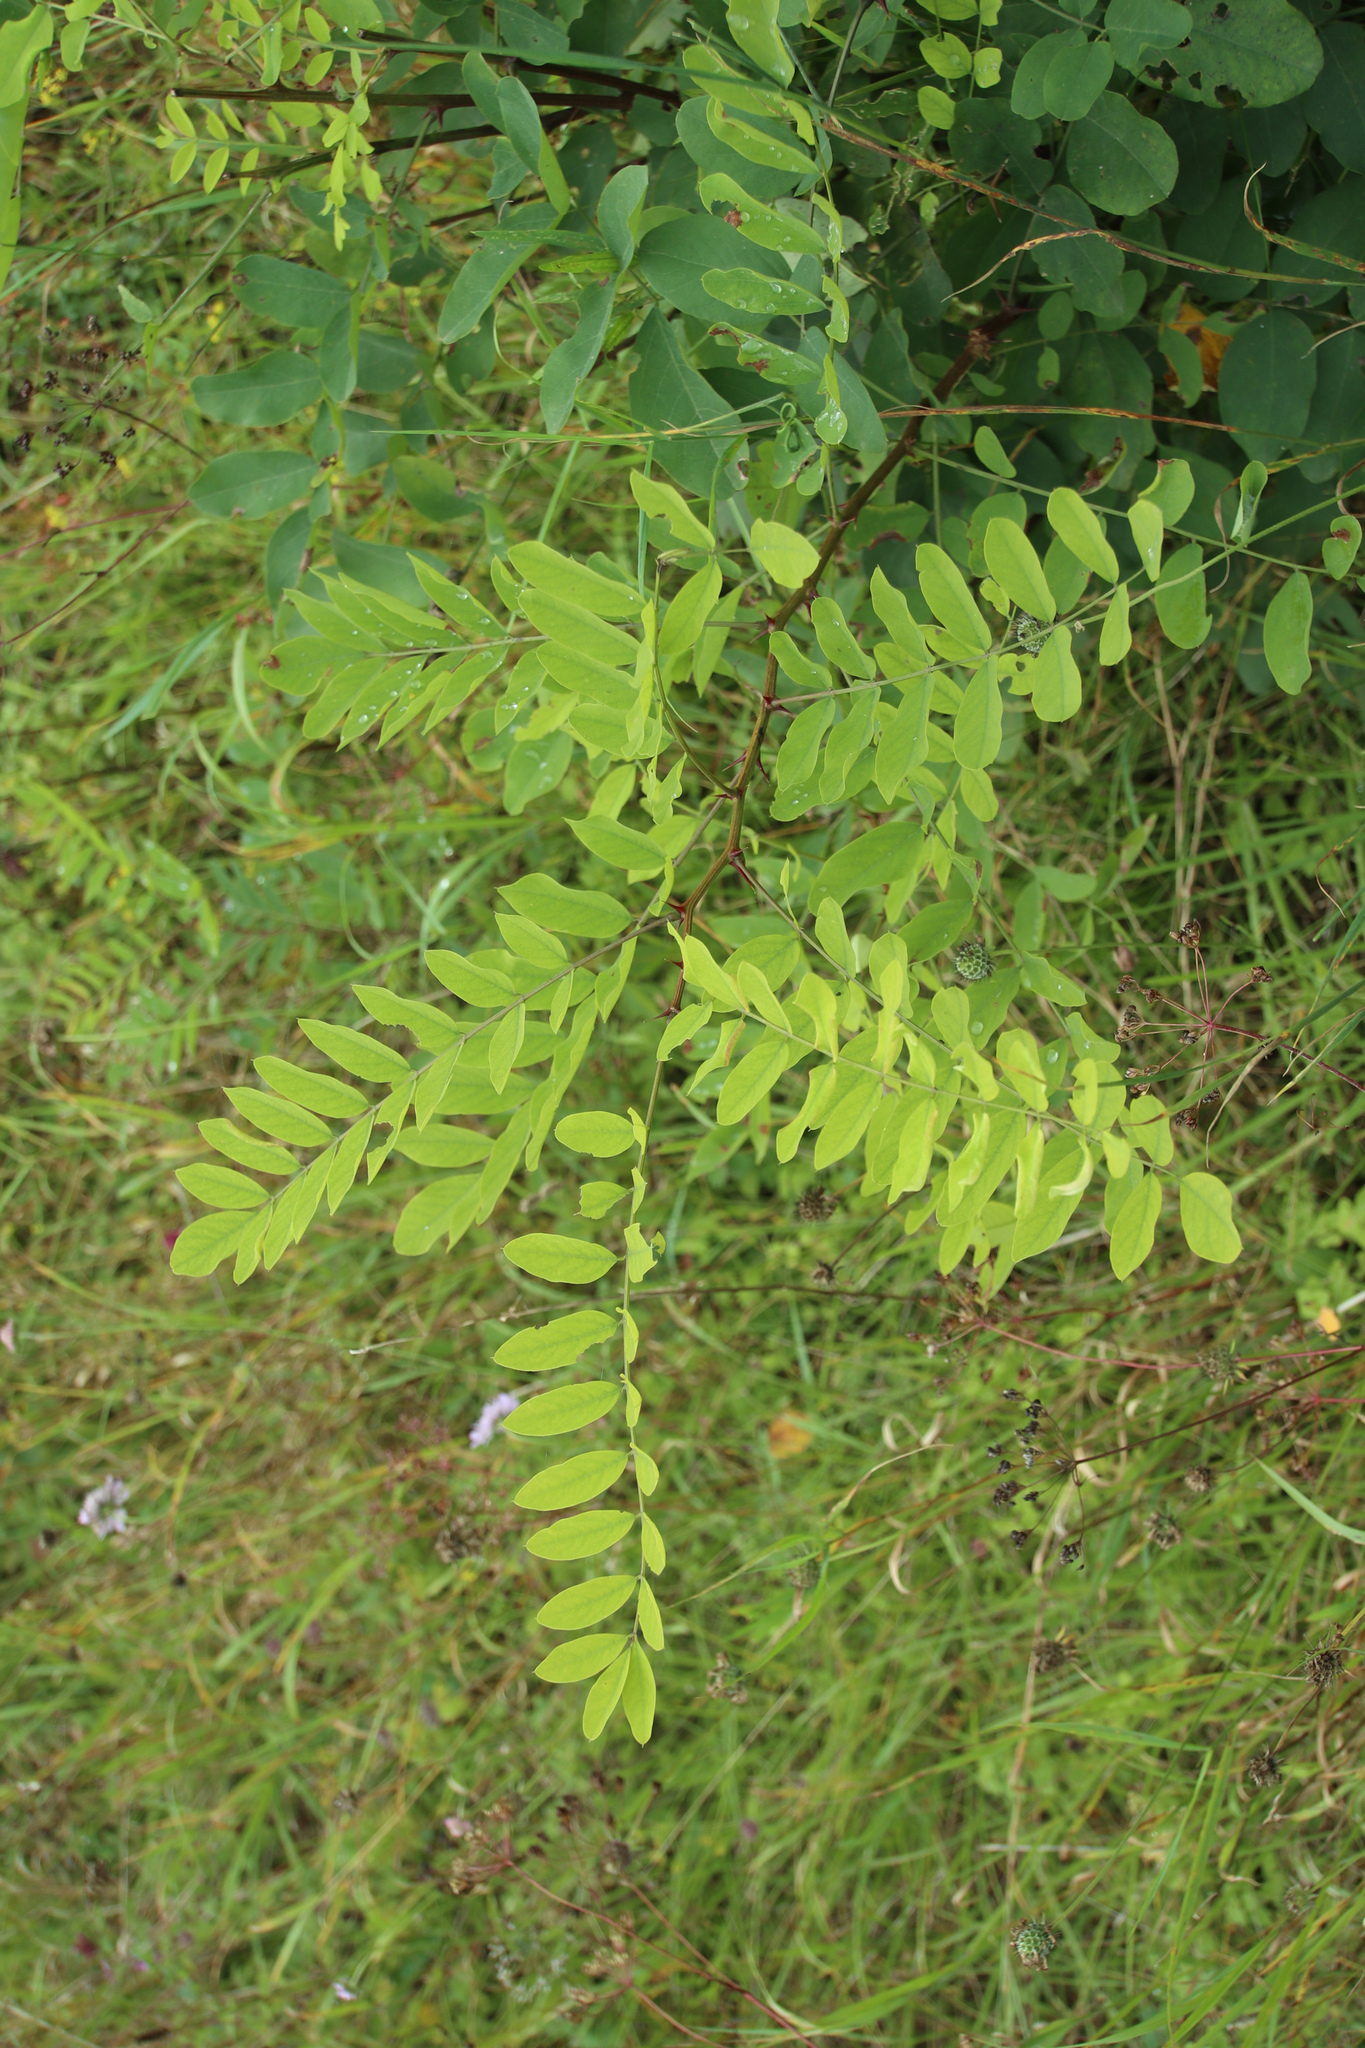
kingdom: Plantae
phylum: Tracheophyta
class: Magnoliopsida
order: Fabales
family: Fabaceae
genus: Robinia
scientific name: Robinia pseudoacacia
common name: Black locust
